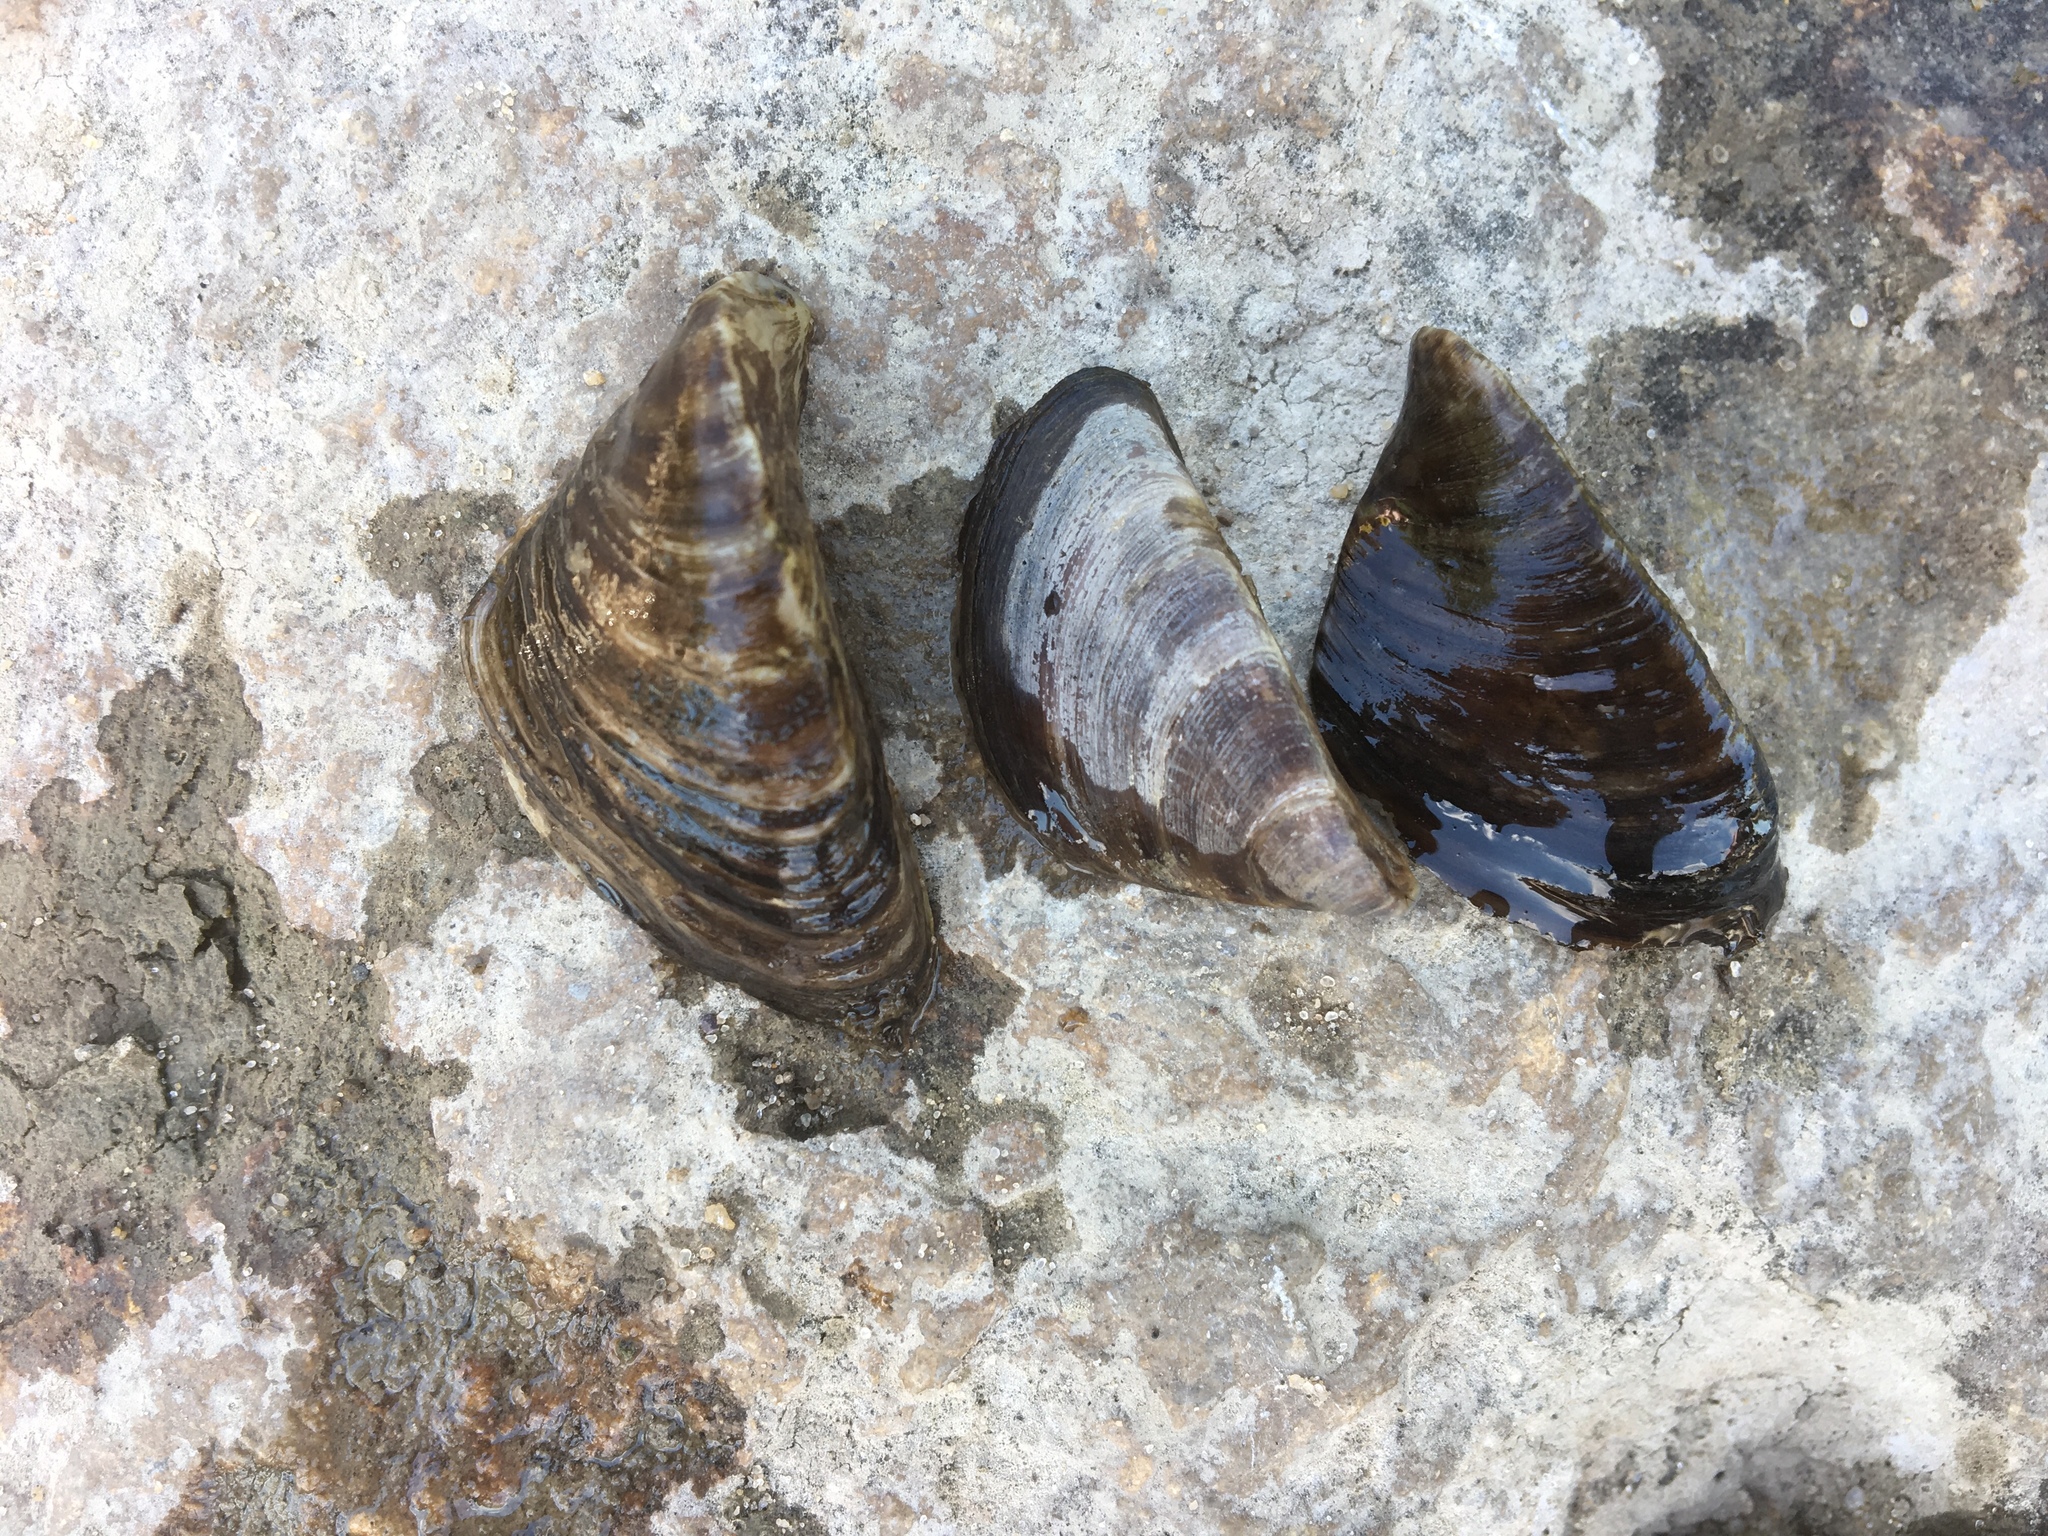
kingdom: Animalia
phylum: Mollusca
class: Bivalvia
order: Myida
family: Dreissenidae
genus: Dreissena
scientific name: Dreissena polymorpha
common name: Zebra mussel
